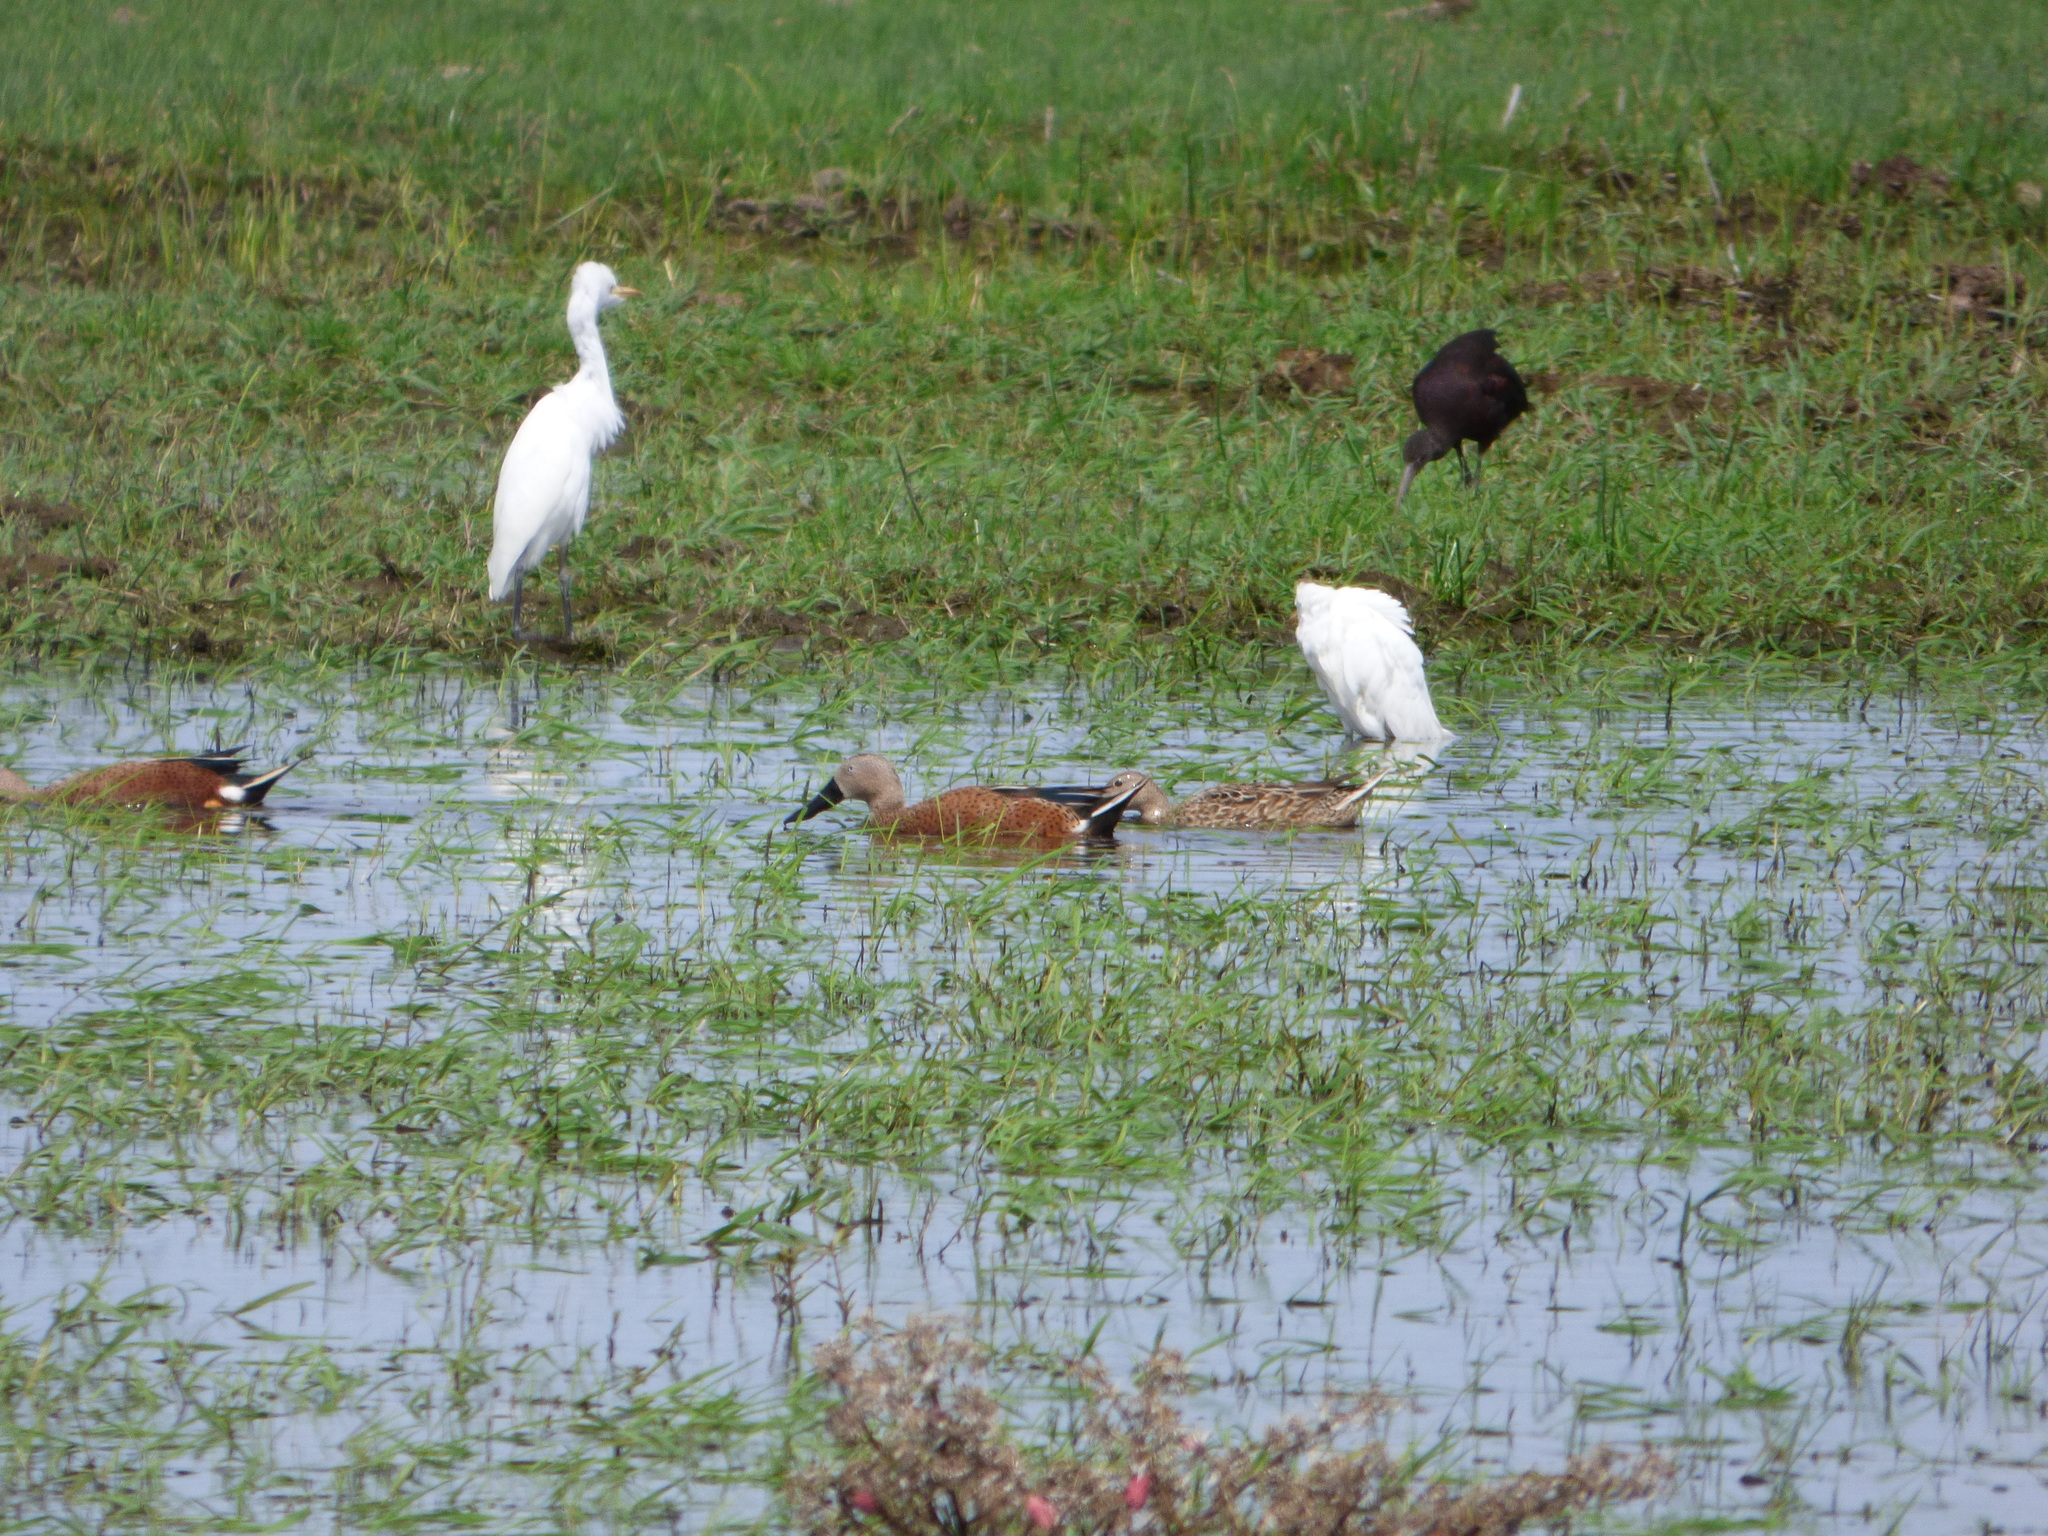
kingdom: Animalia
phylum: Chordata
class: Aves
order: Anseriformes
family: Anatidae
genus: Spatula
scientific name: Spatula platalea
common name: Red shoveler
